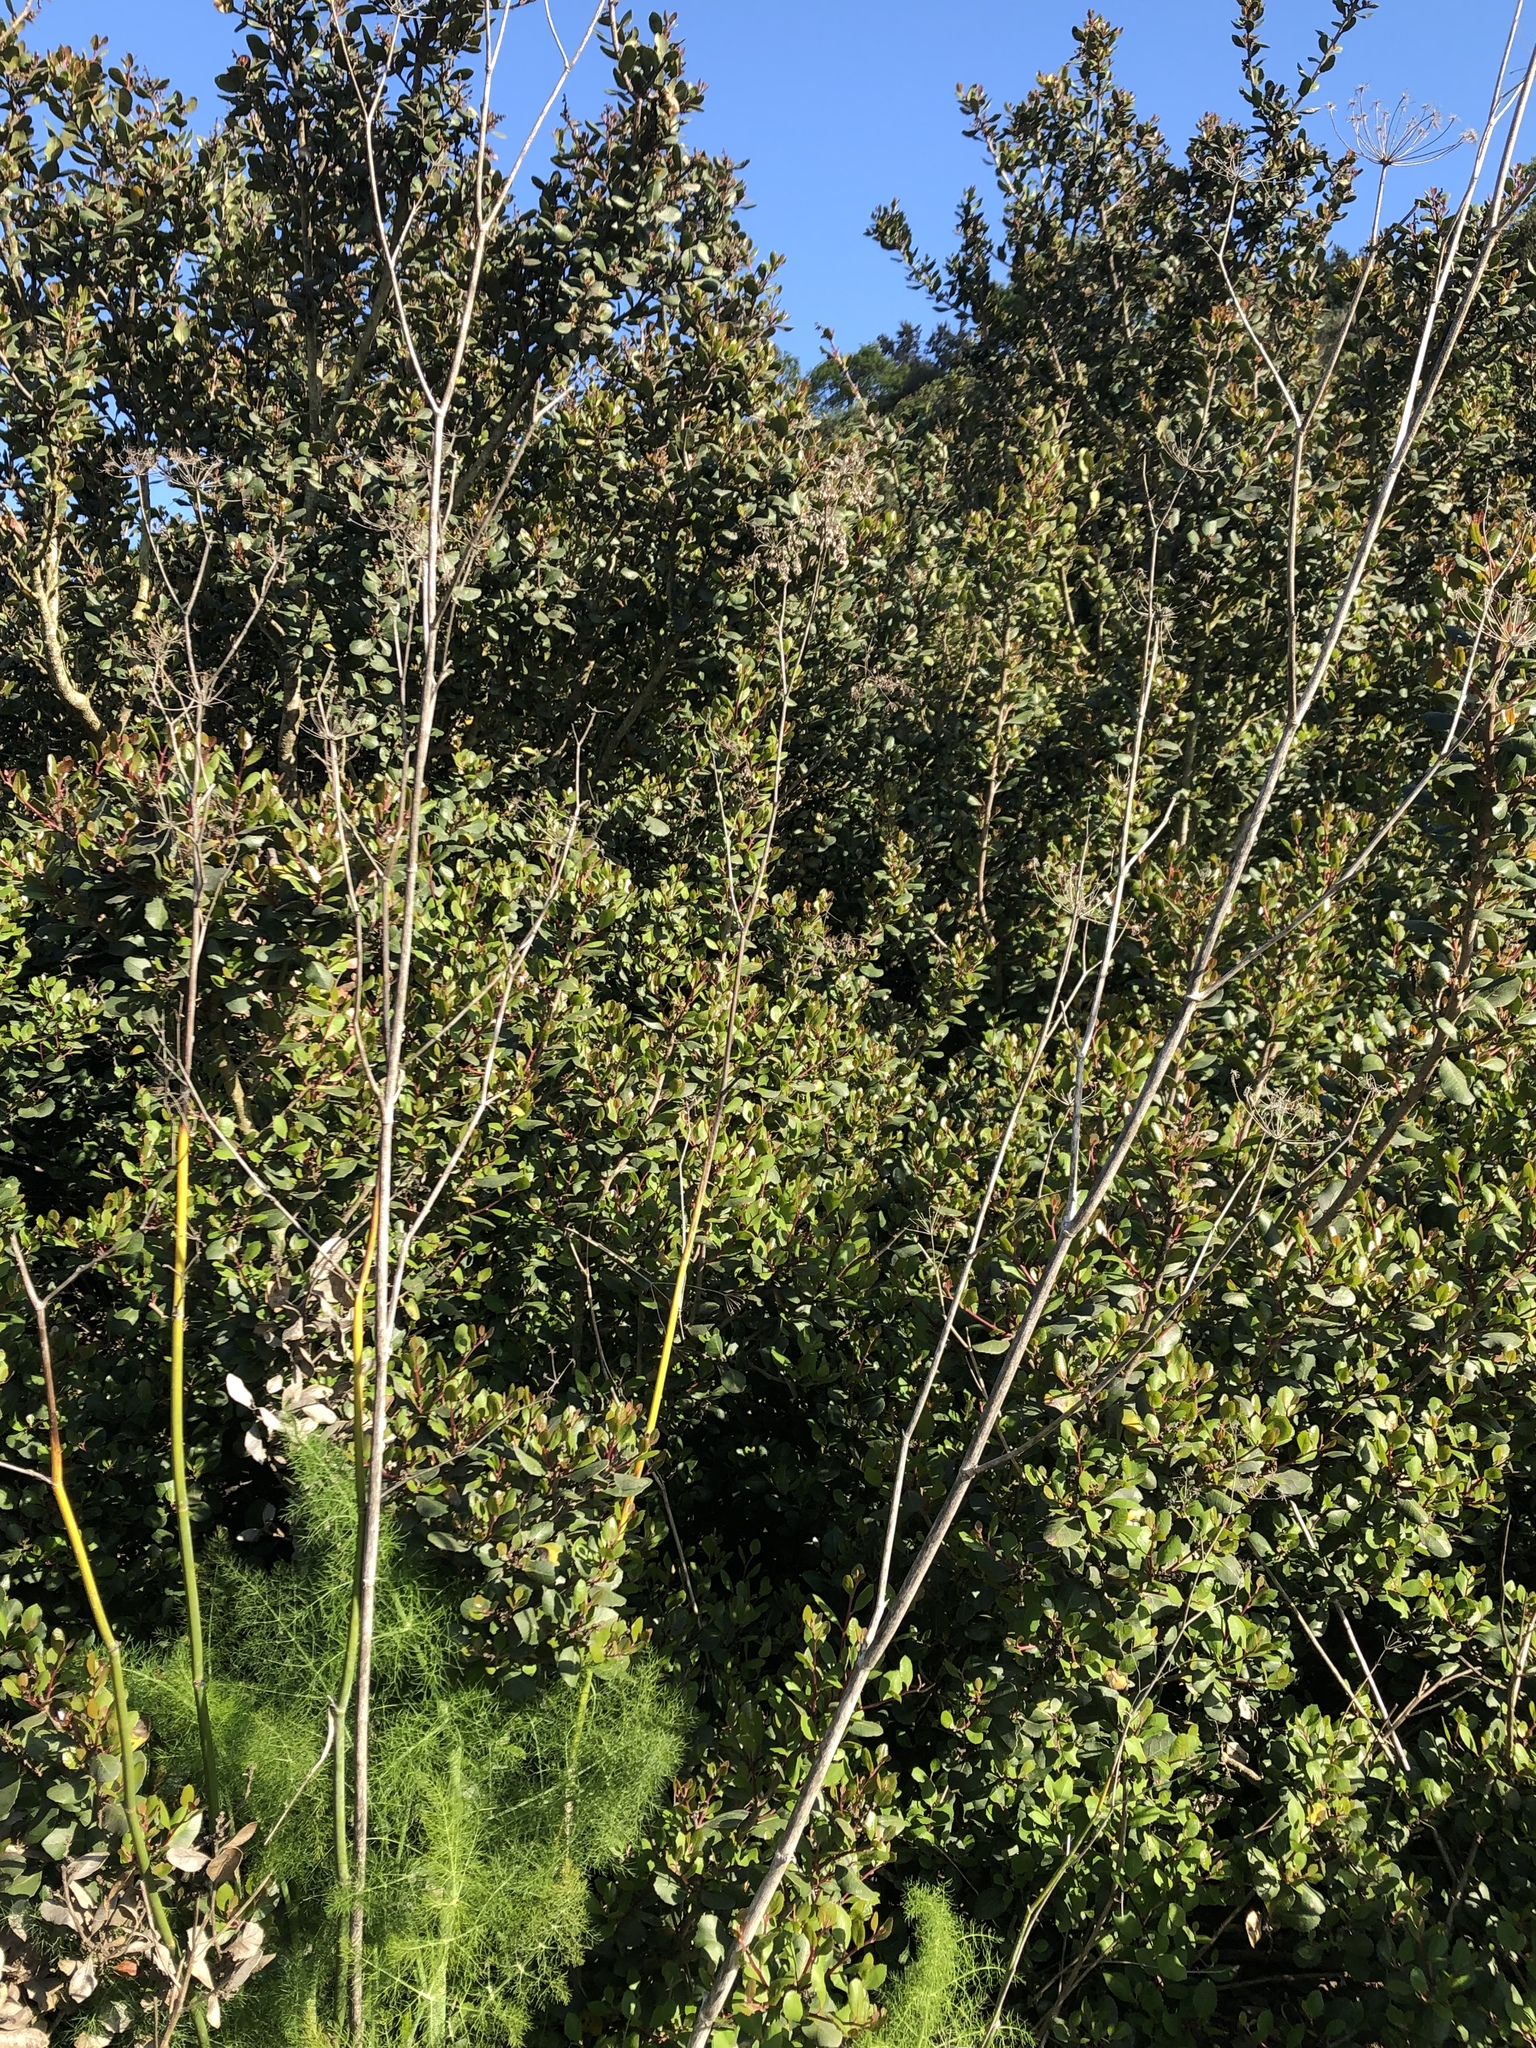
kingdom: Plantae
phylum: Tracheophyta
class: Magnoliopsida
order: Apiales
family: Apiaceae
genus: Foeniculum
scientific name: Foeniculum vulgare
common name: Fennel
